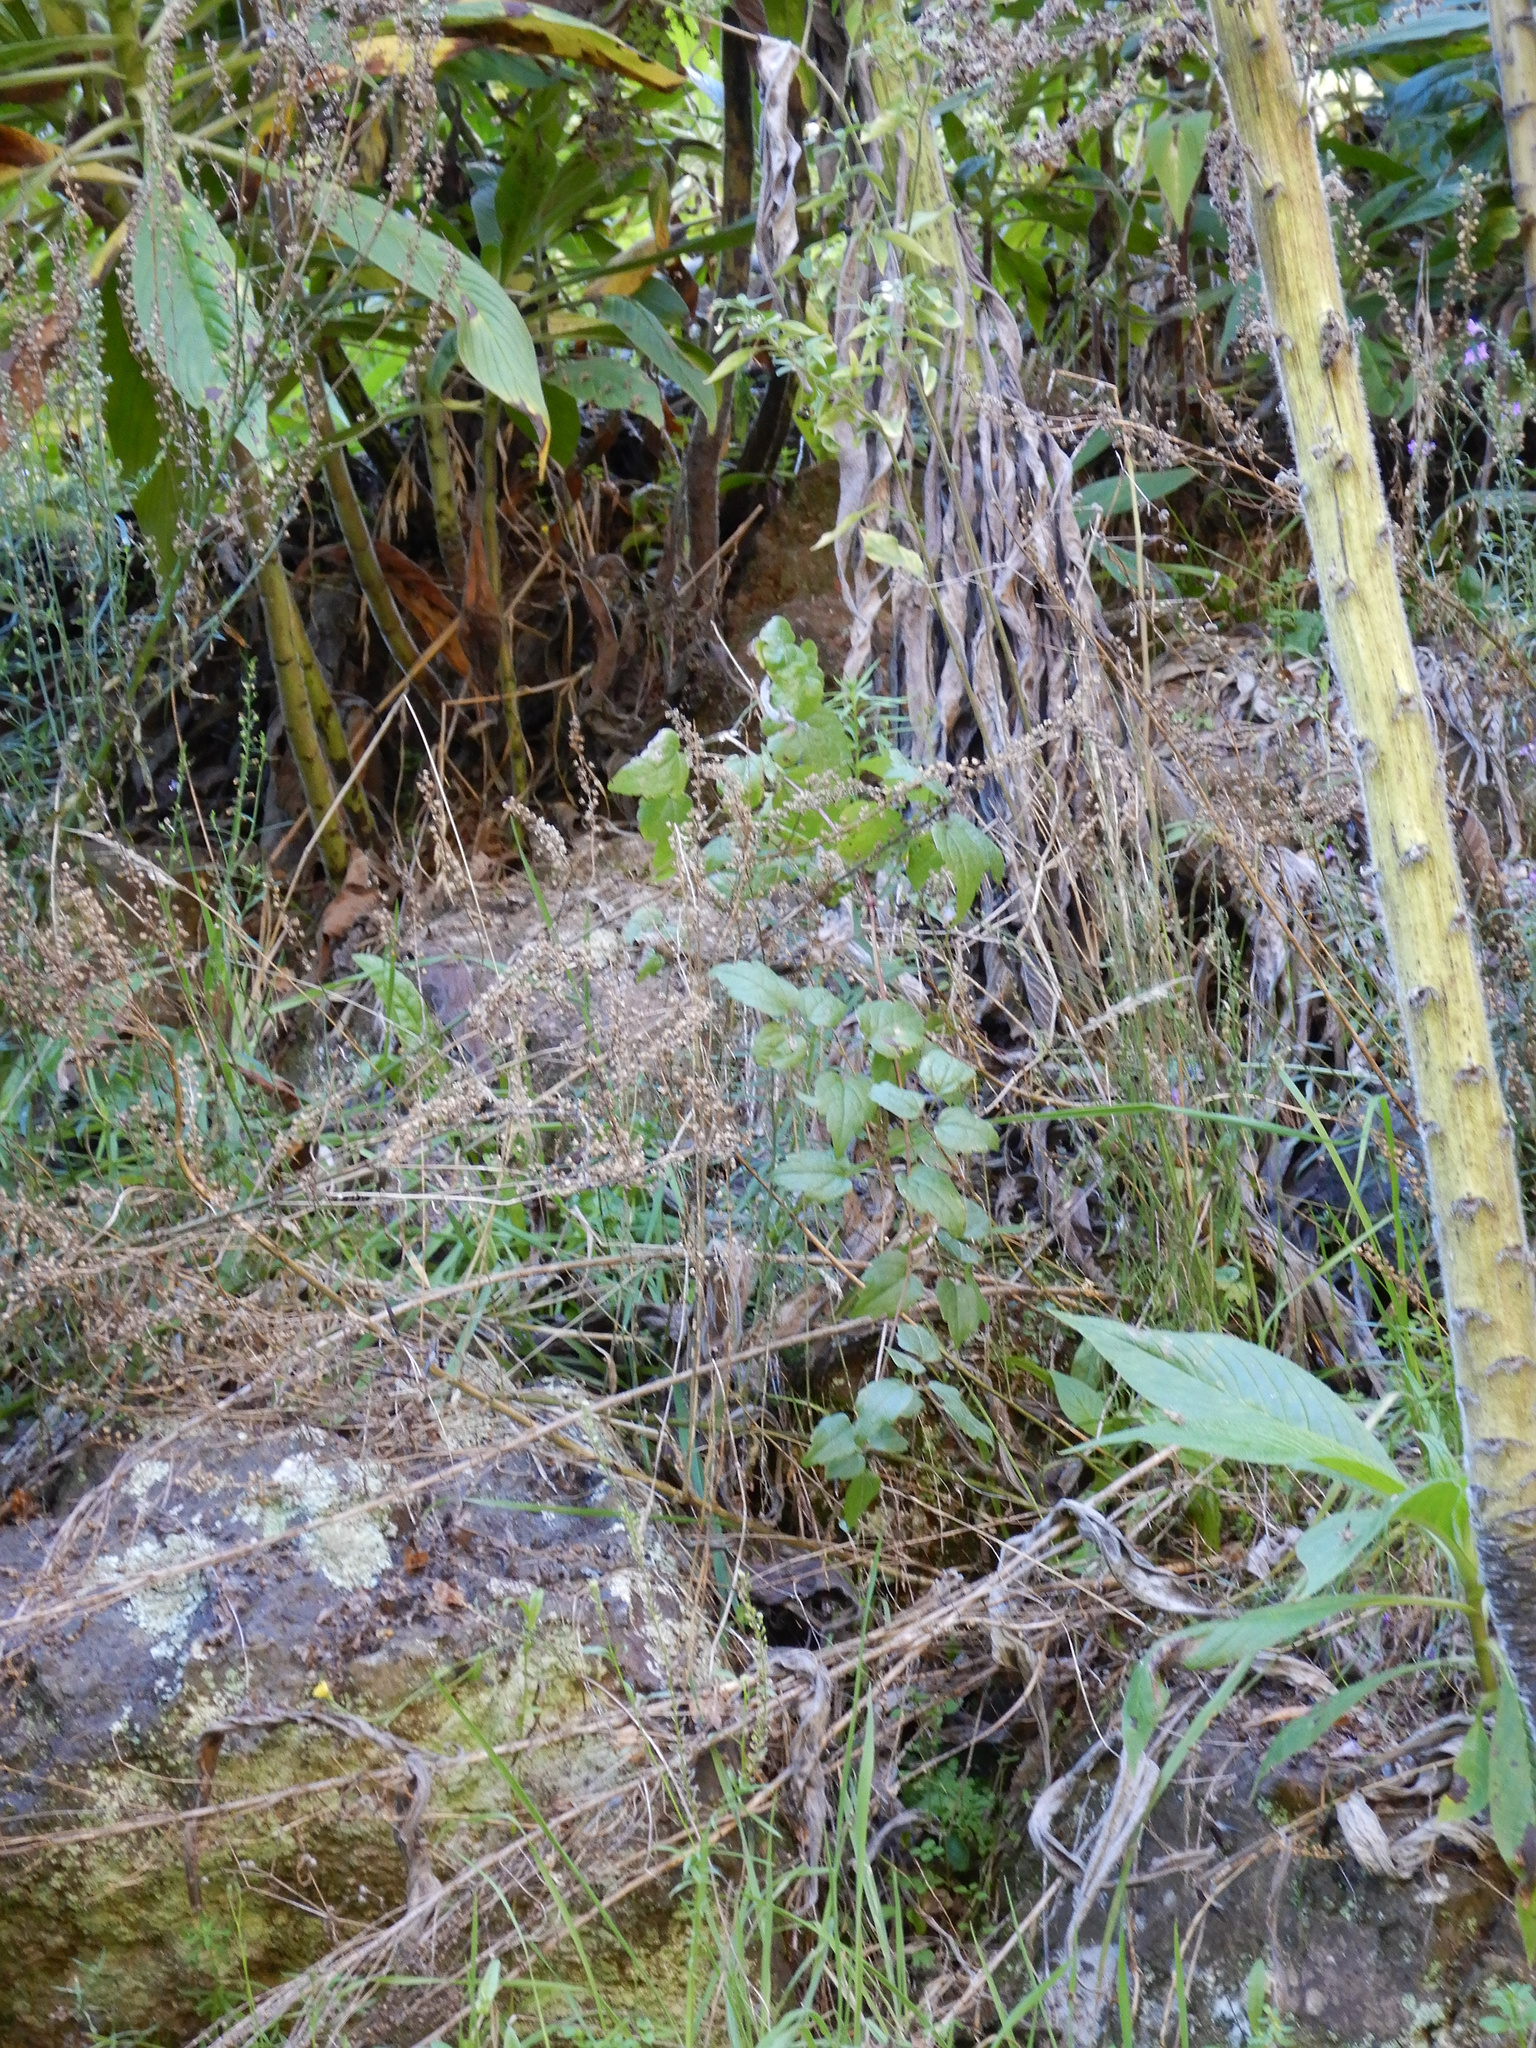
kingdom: Plantae
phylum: Tracheophyta
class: Magnoliopsida
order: Ranunculales
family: Ranunculaceae
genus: Clematis
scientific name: Clematis vitalba
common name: Evergreen clematis
